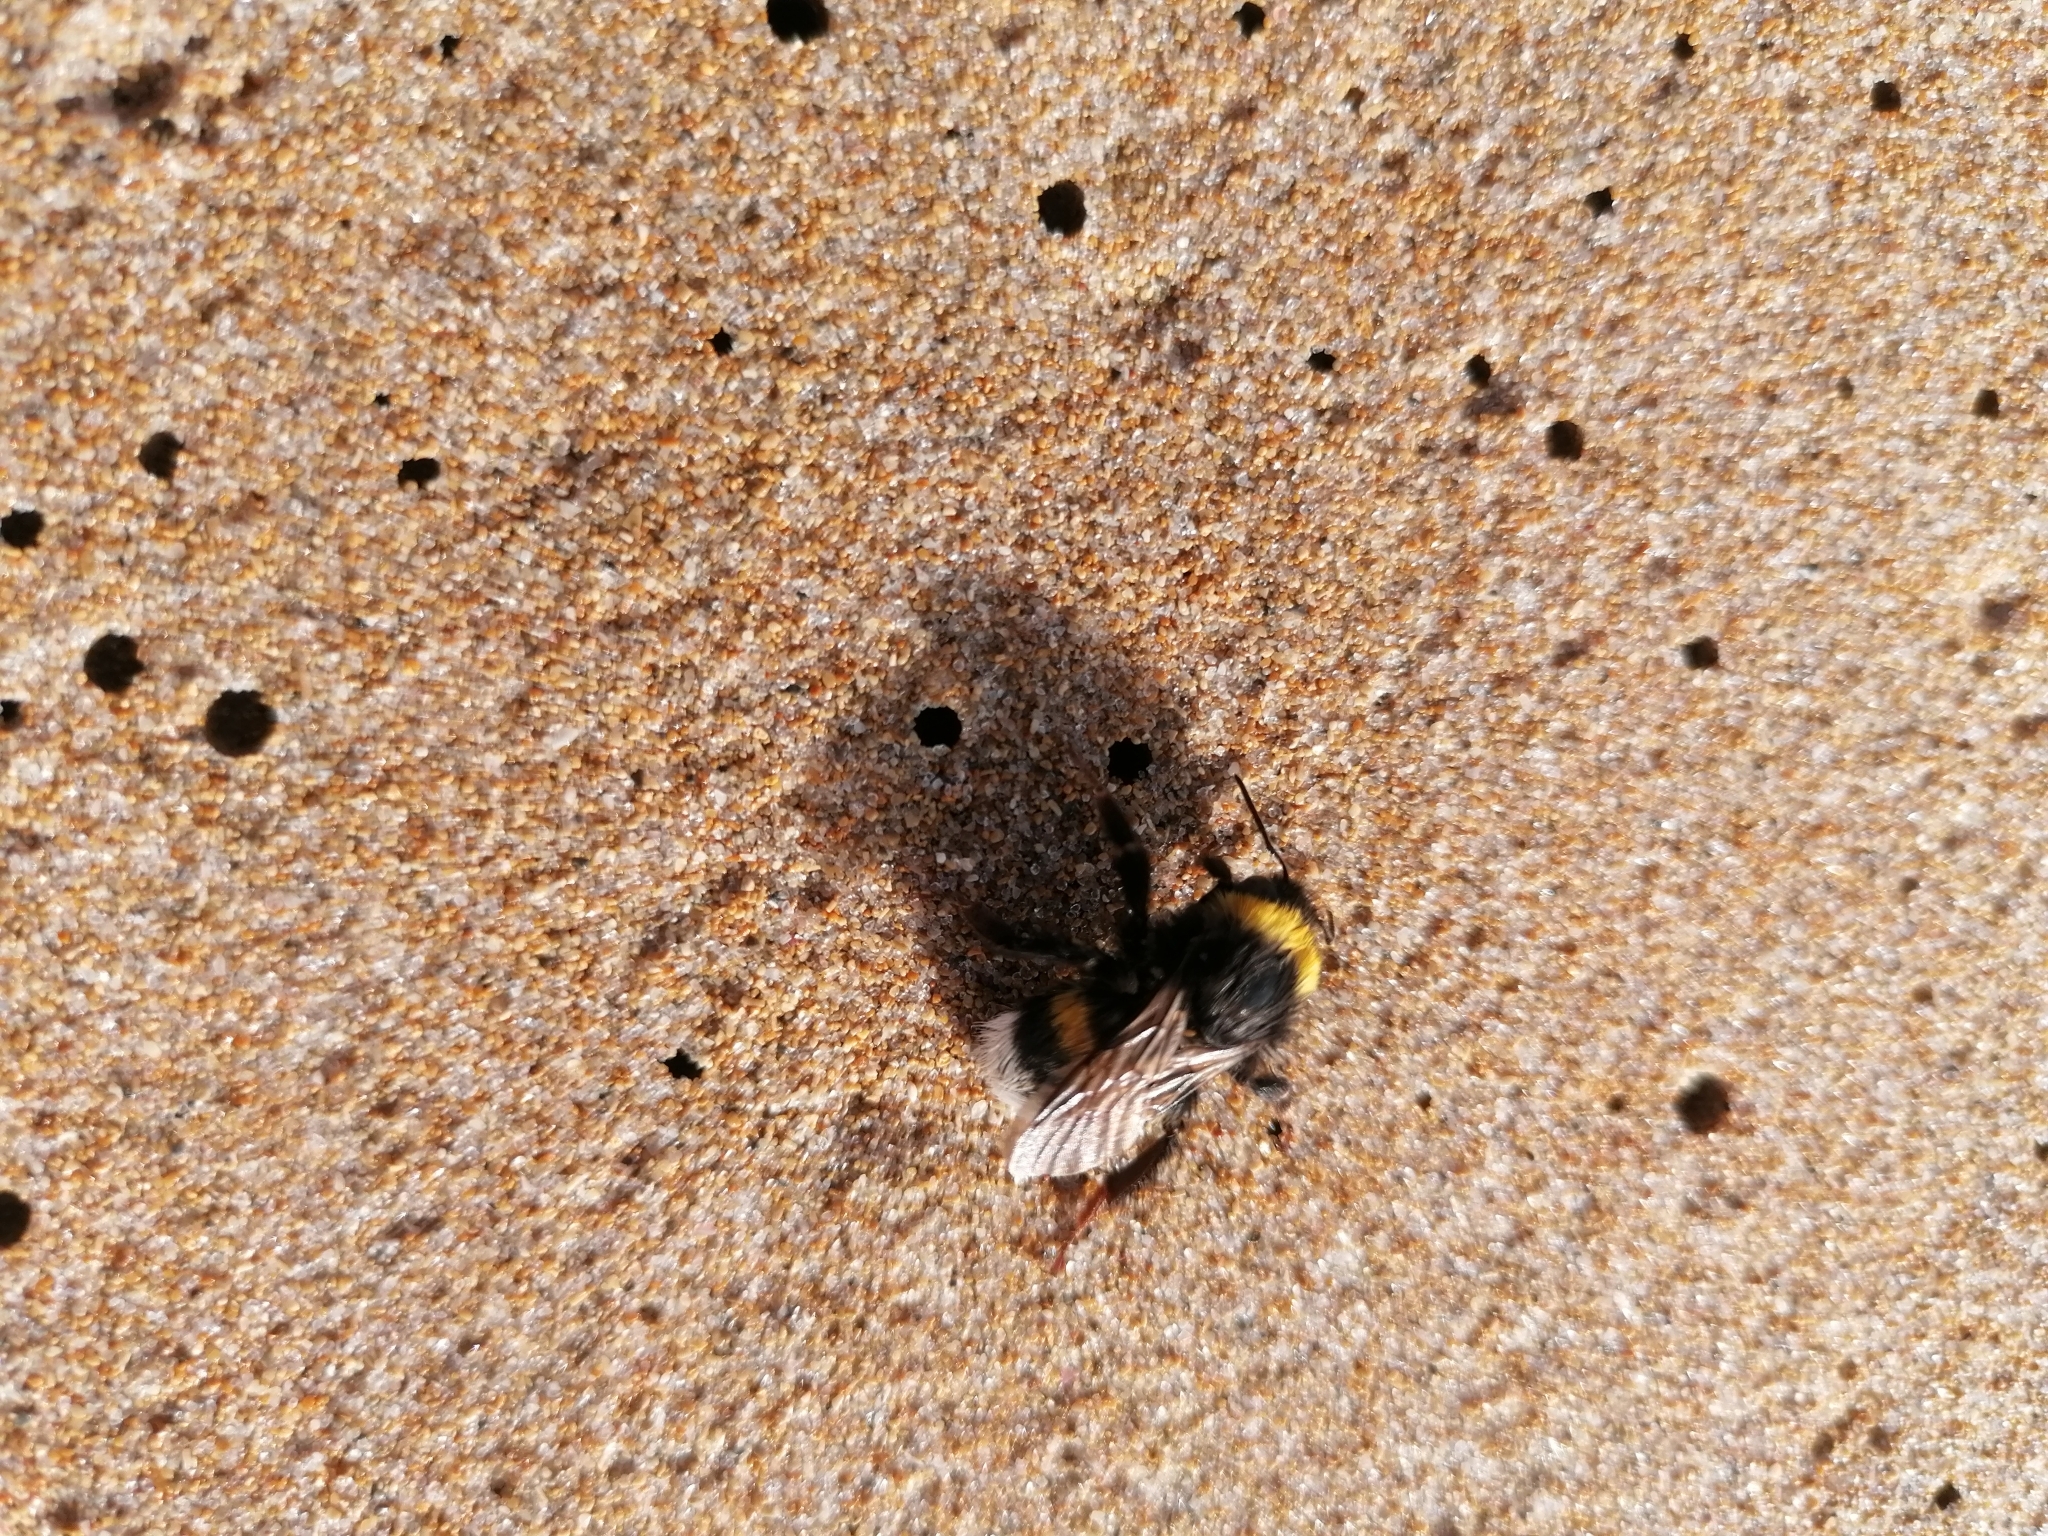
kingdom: Animalia
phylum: Arthropoda
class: Insecta
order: Hymenoptera
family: Apidae
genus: Bombus
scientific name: Bombus terrestris
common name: Buff-tailed bumblebee
